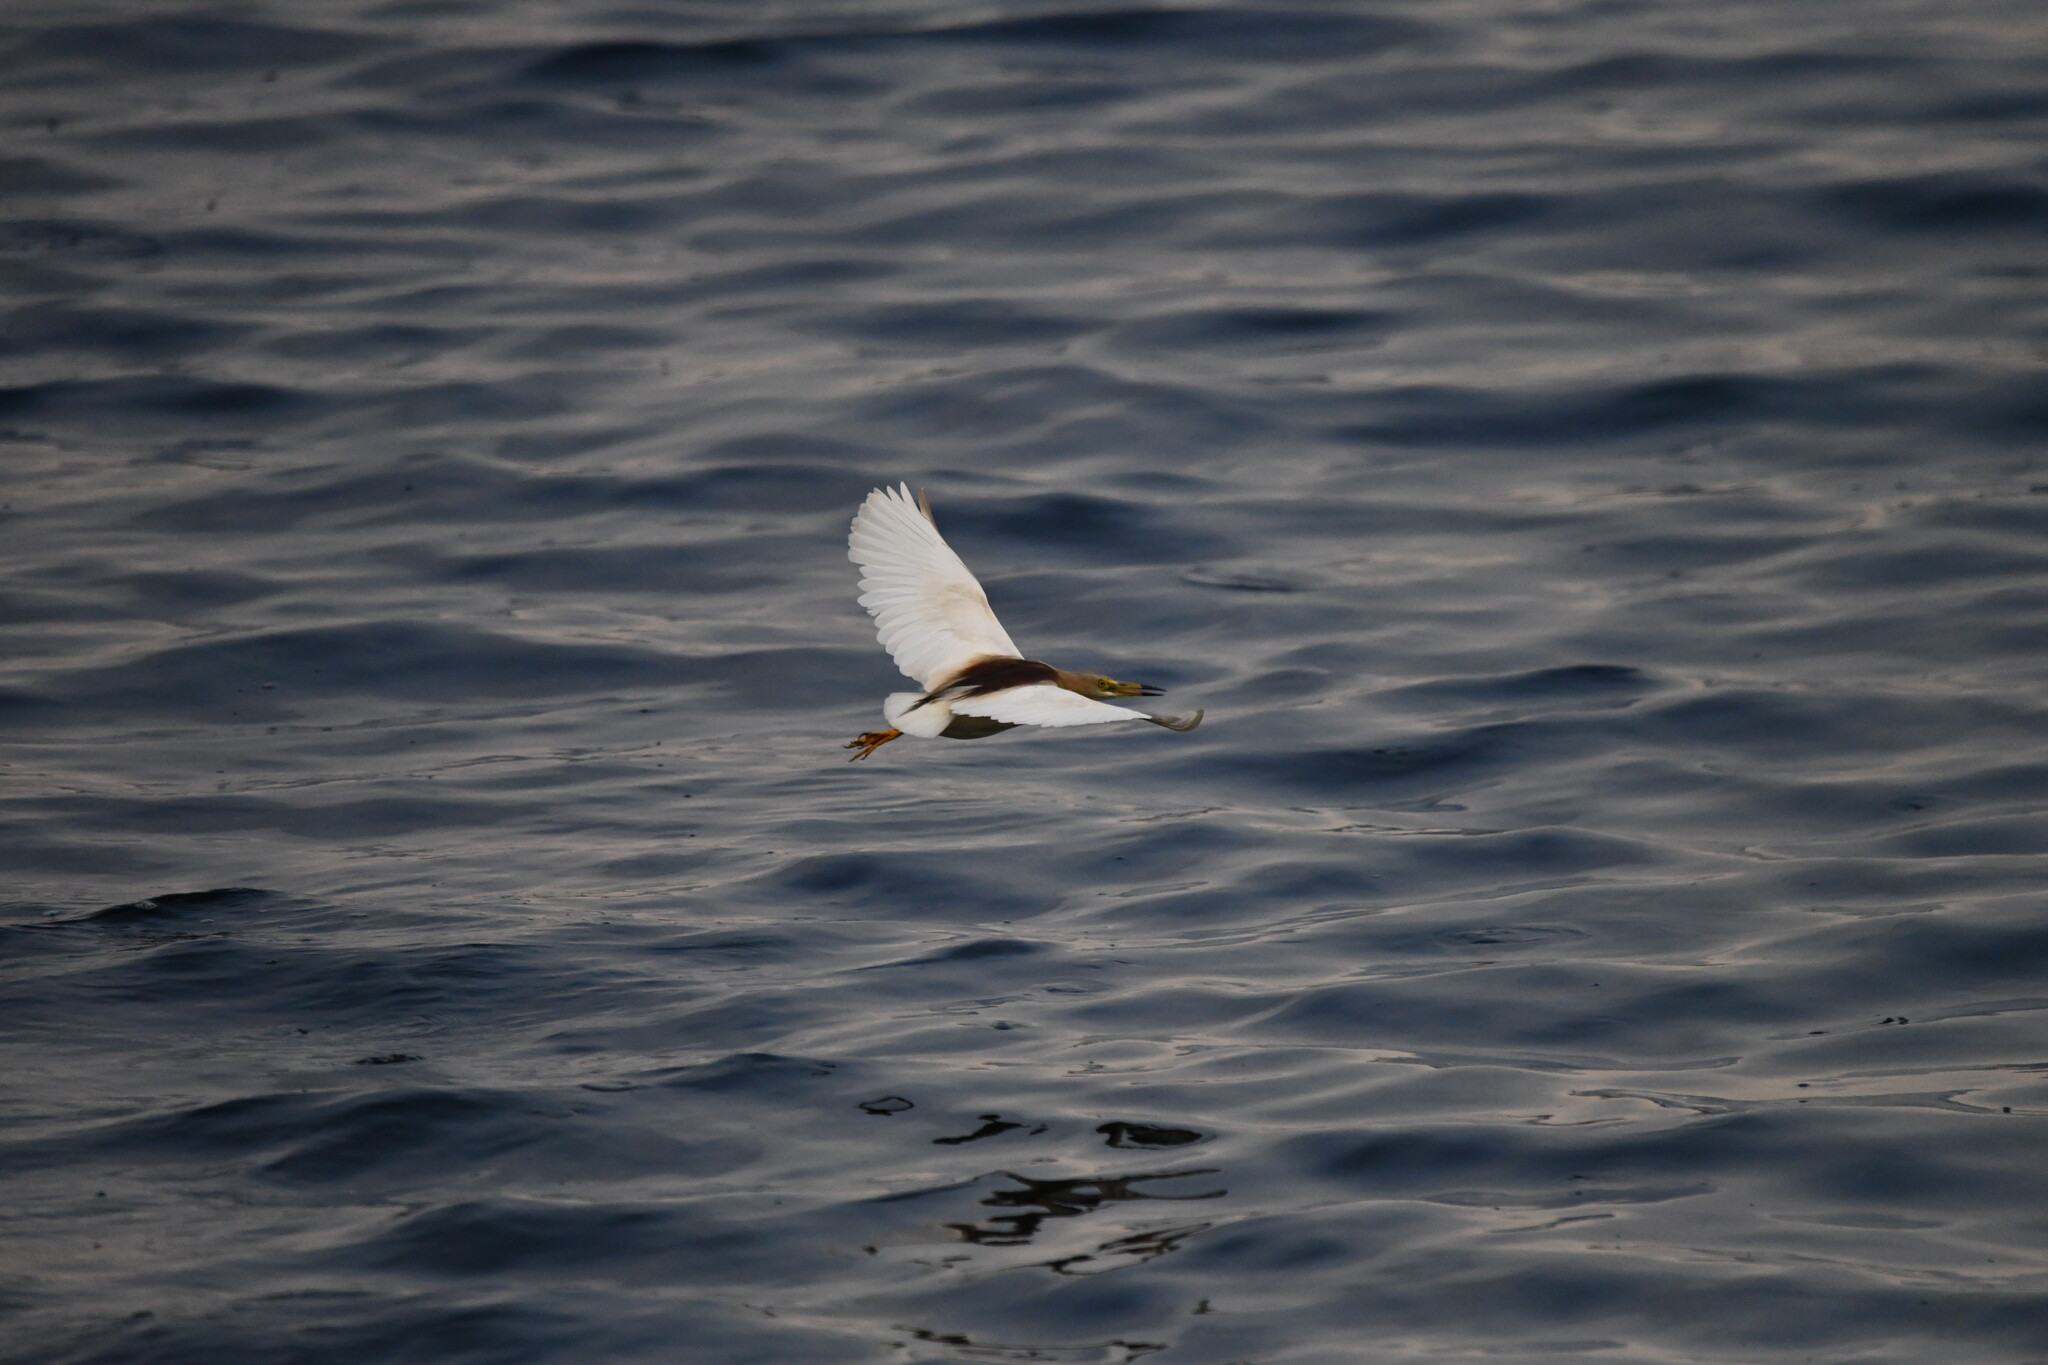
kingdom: Animalia
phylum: Chordata
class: Aves
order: Pelecaniformes
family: Ardeidae
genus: Ardeola
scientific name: Ardeola grayii
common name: Indian pond heron
